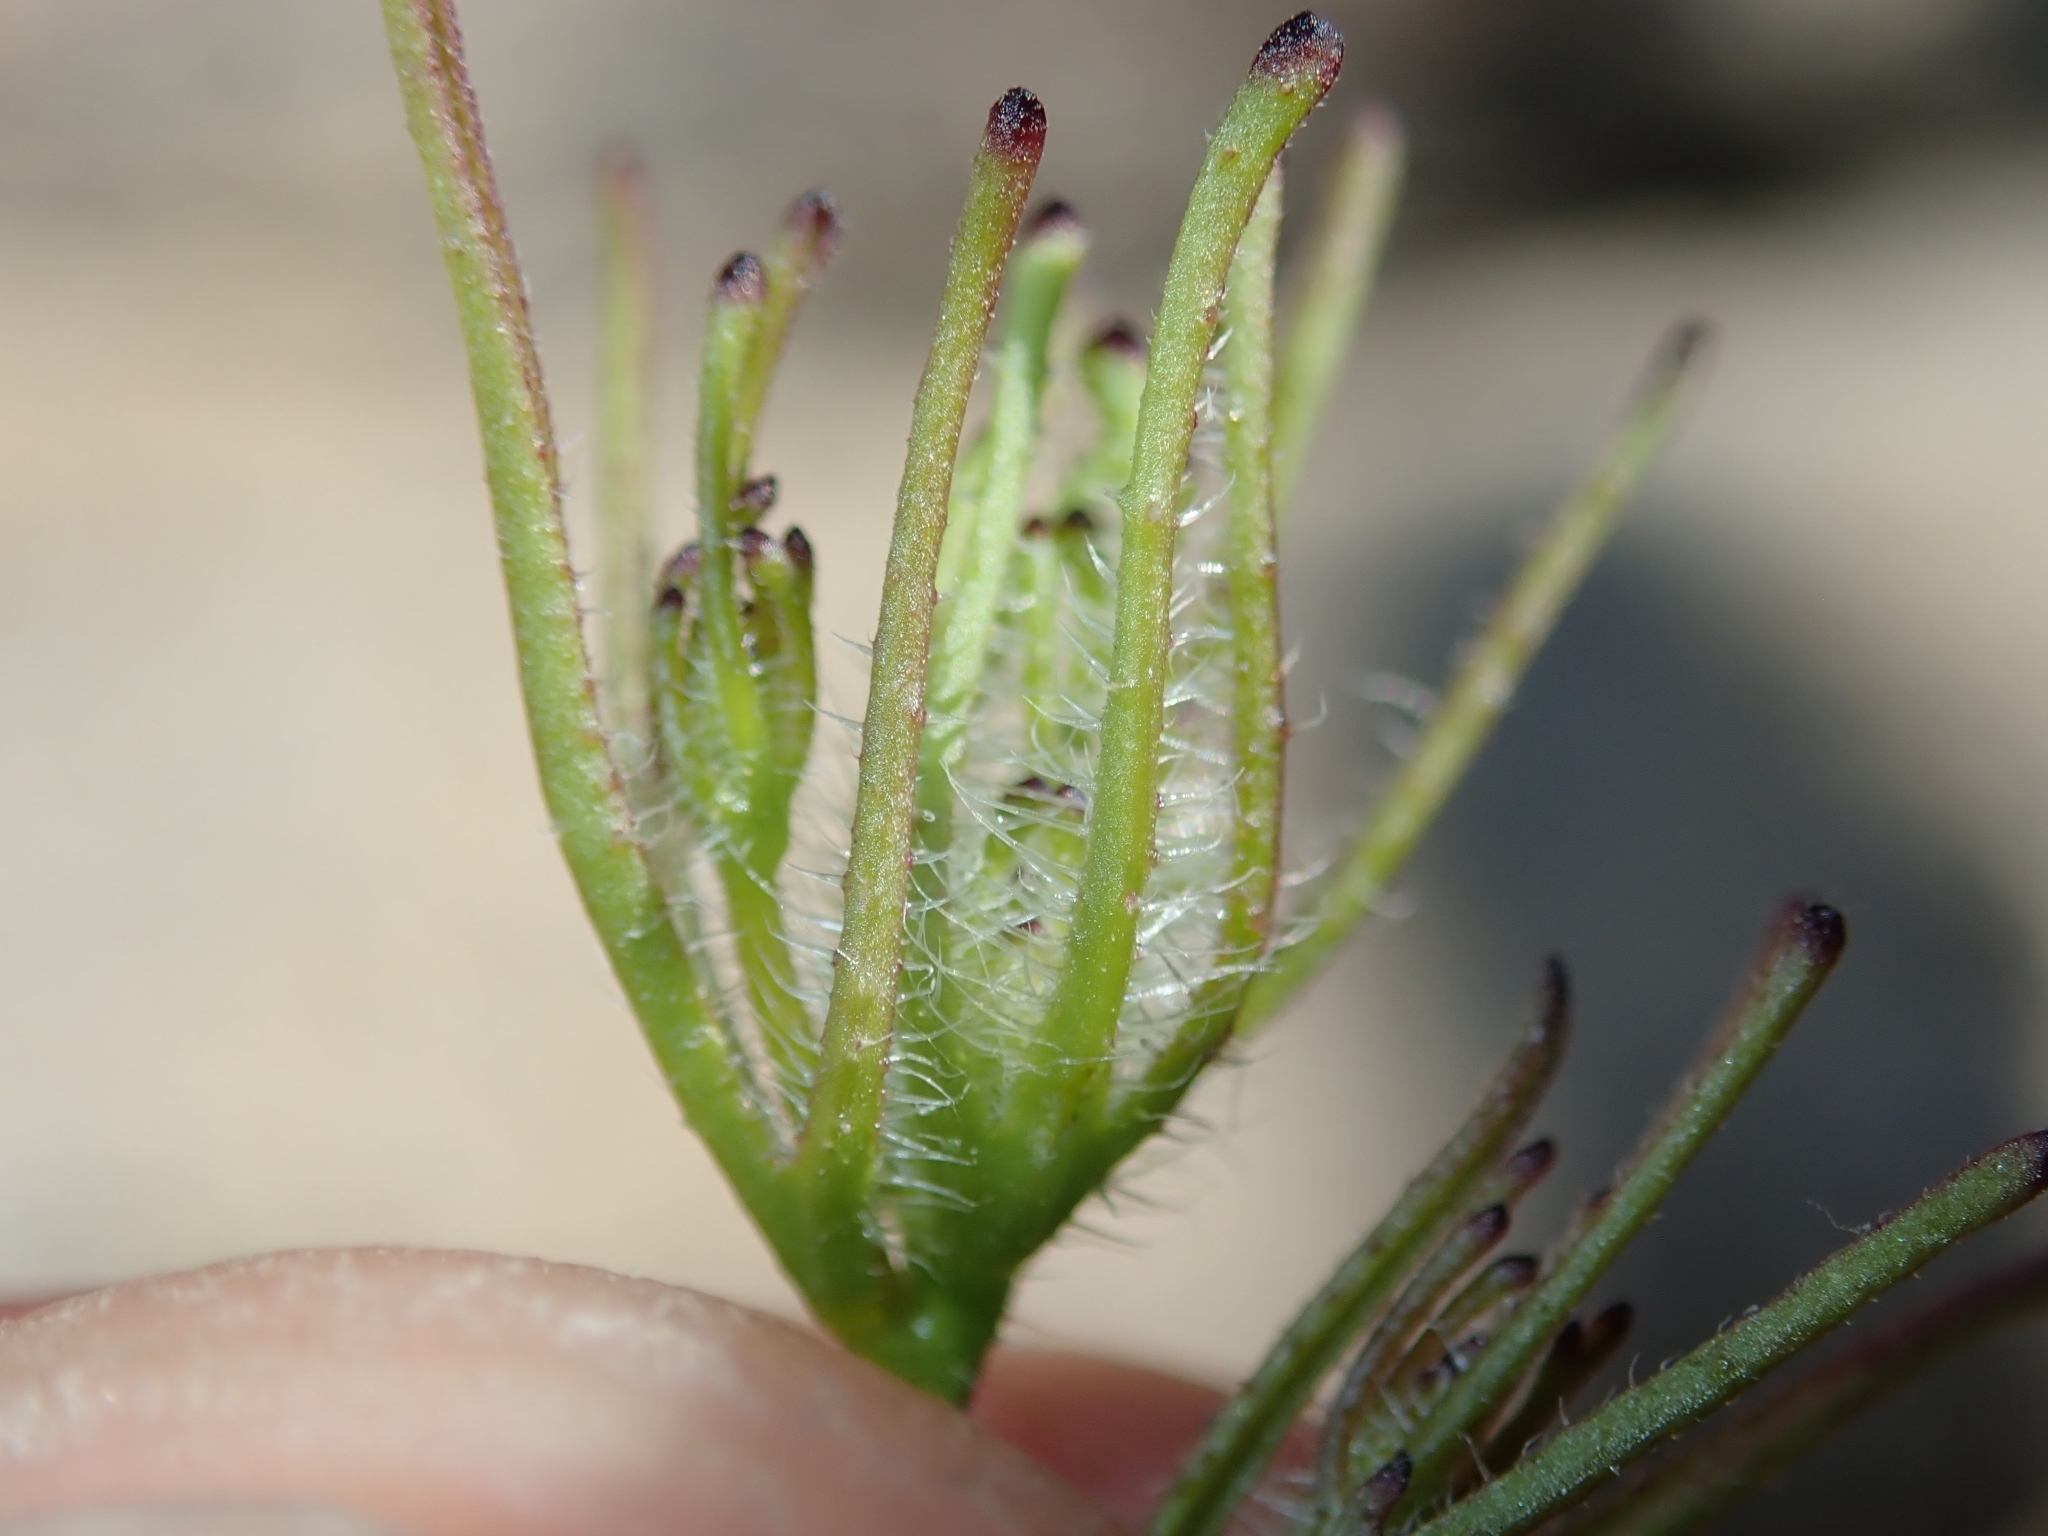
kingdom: Plantae
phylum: Tracheophyta
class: Magnoliopsida
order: Lamiales
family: Orobanchaceae
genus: Cordylanthus
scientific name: Cordylanthus rigidus
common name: Stiff-branch bird's-beak
